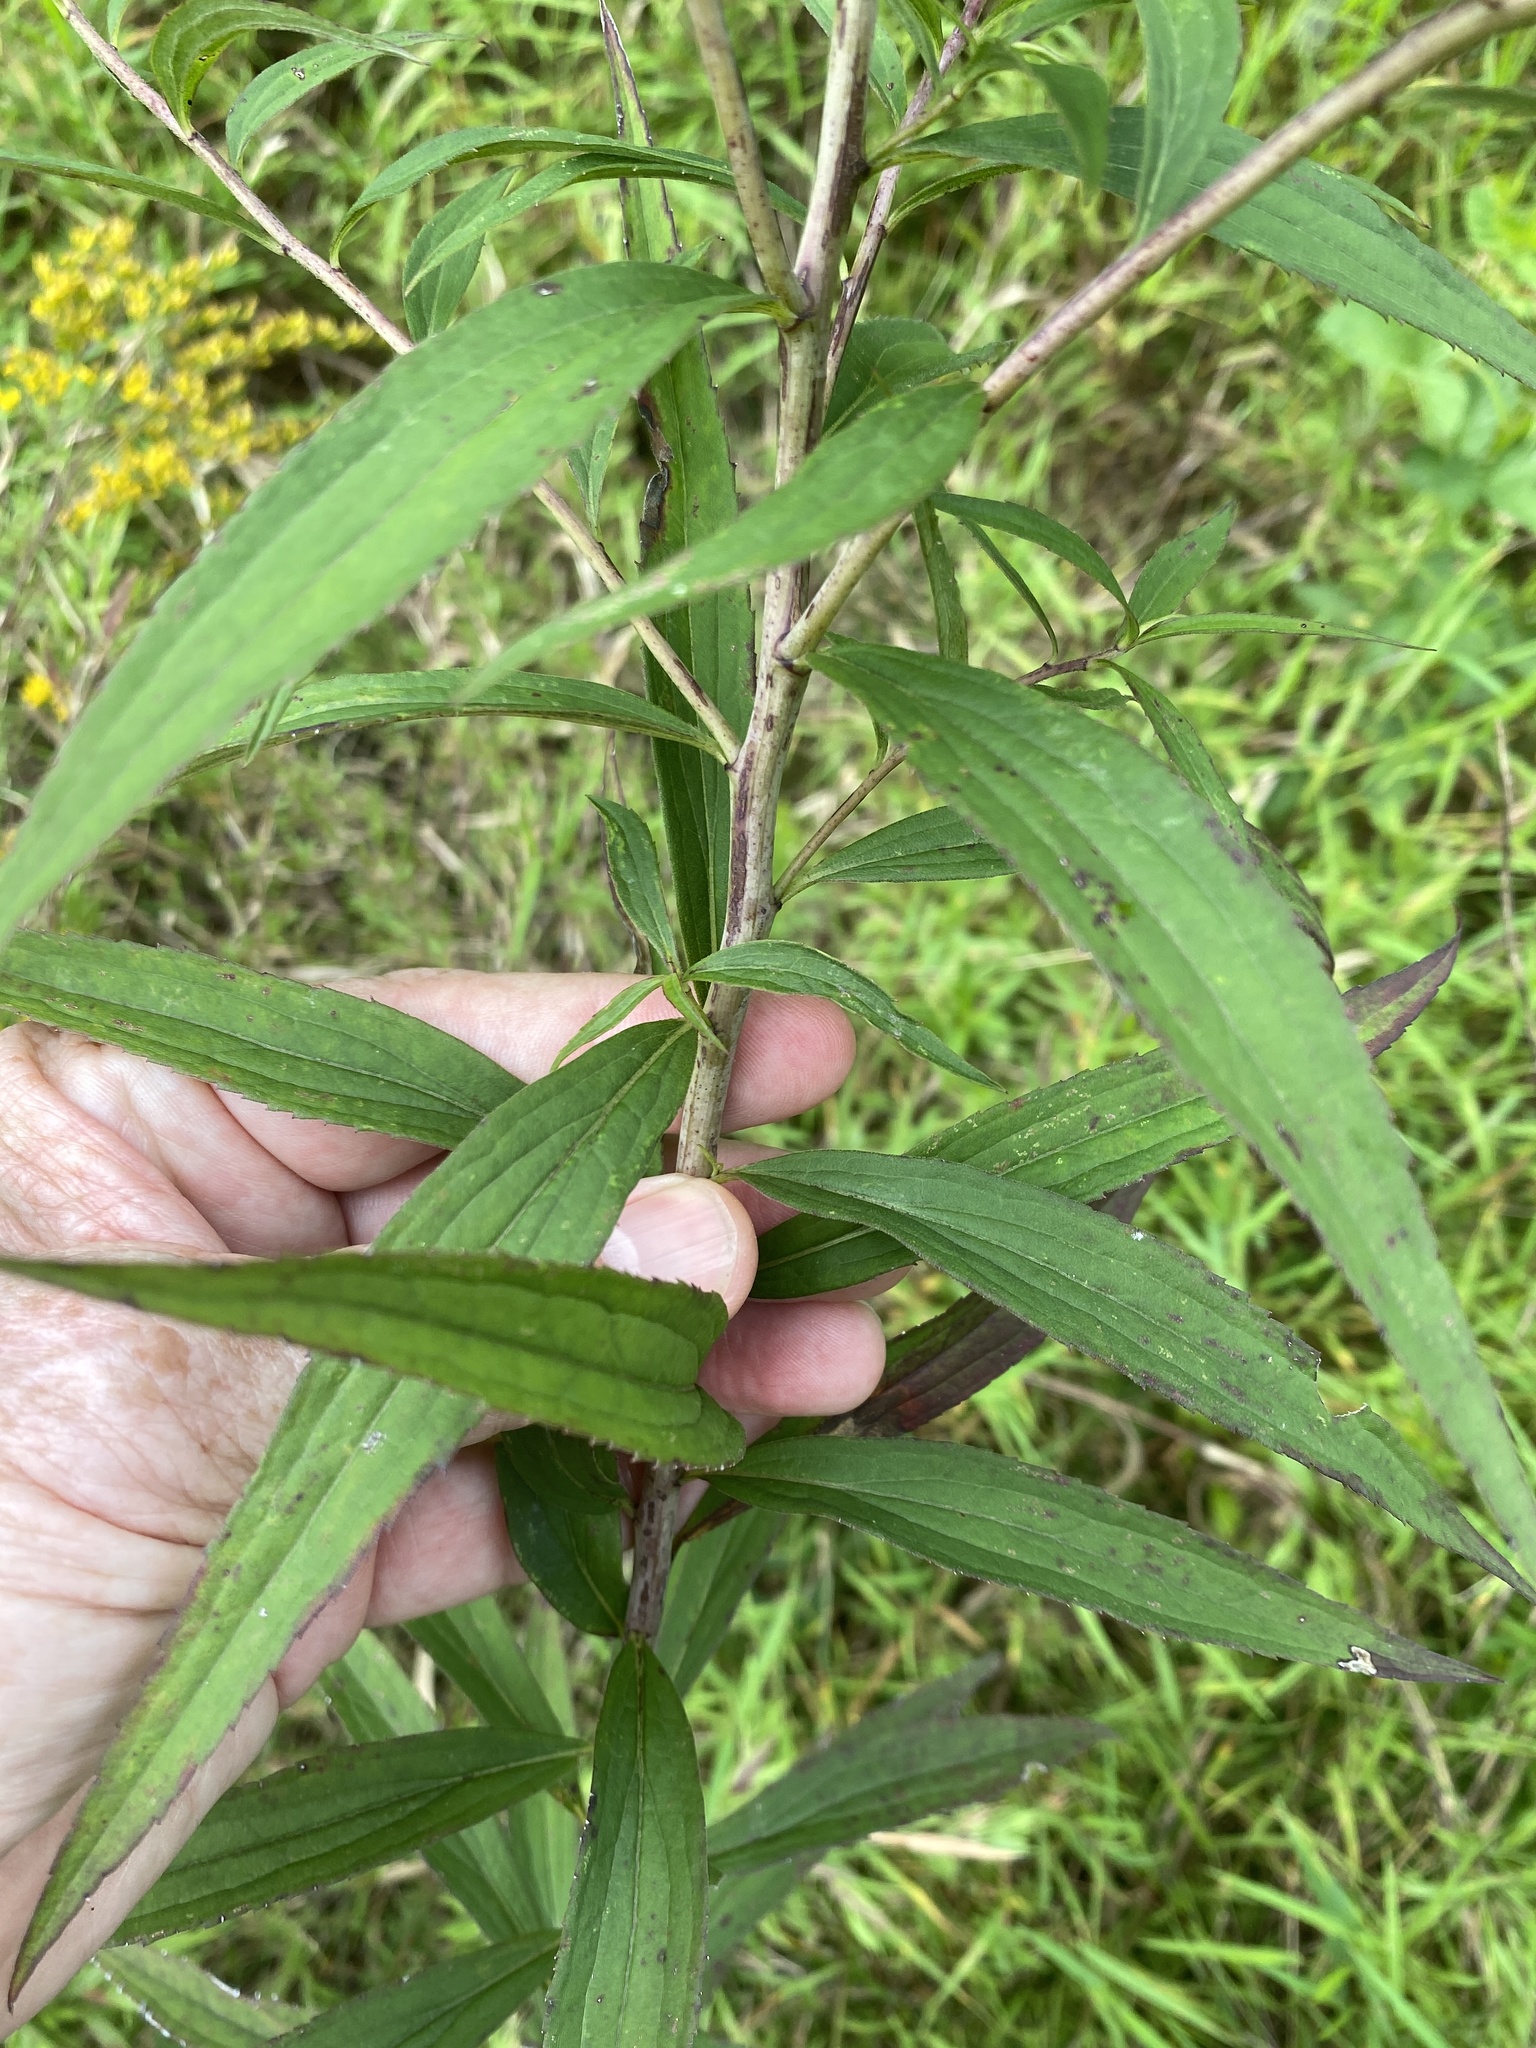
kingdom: Plantae
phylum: Tracheophyta
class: Magnoliopsida
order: Asterales
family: Asteraceae
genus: Solidago
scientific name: Solidago gigantea
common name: Giant goldenrod
